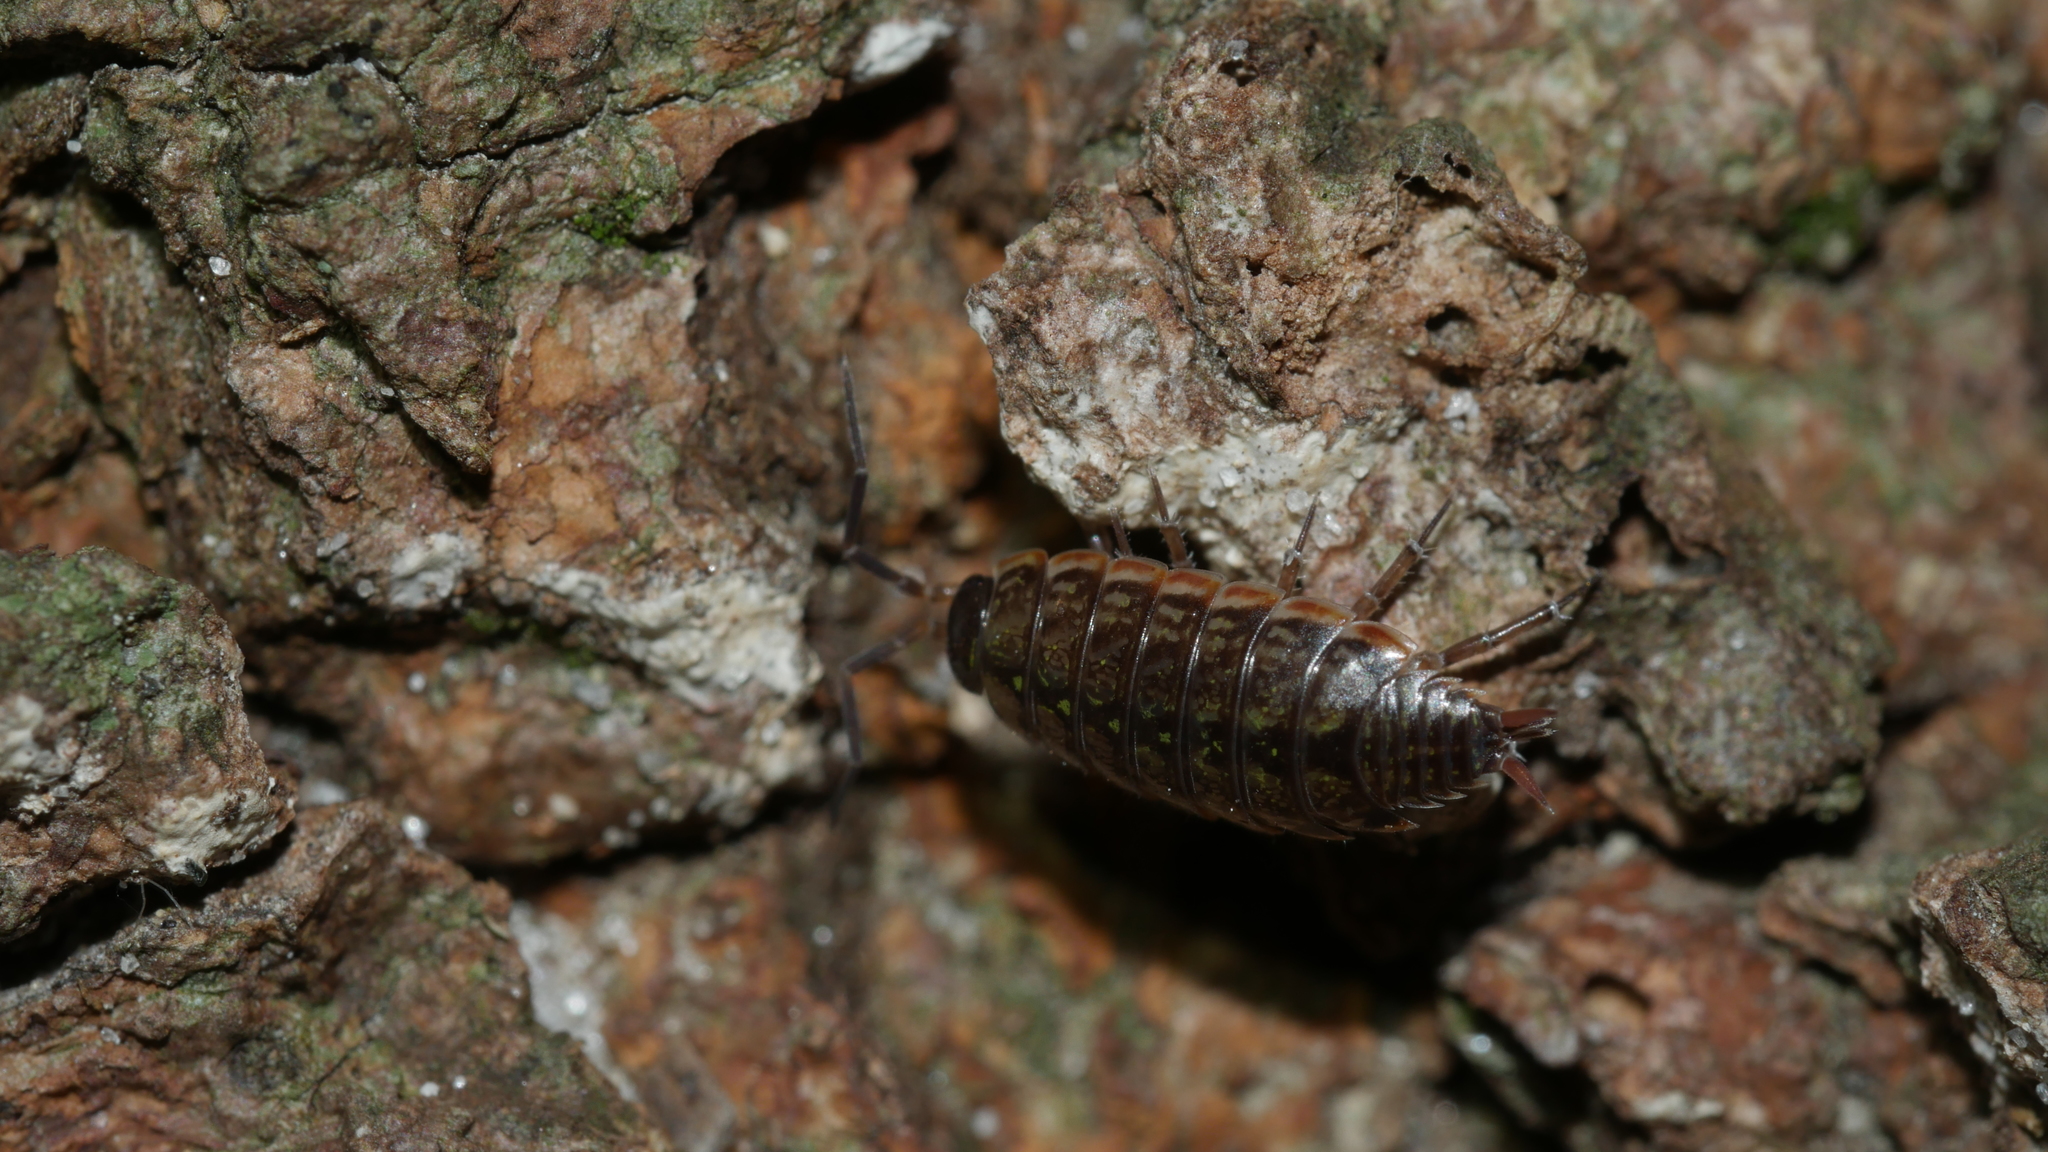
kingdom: Animalia
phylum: Arthropoda
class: Malacostraca
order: Isopoda
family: Philosciidae
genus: Philoscia
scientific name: Philoscia muscorum
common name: Common striped woodlouse
